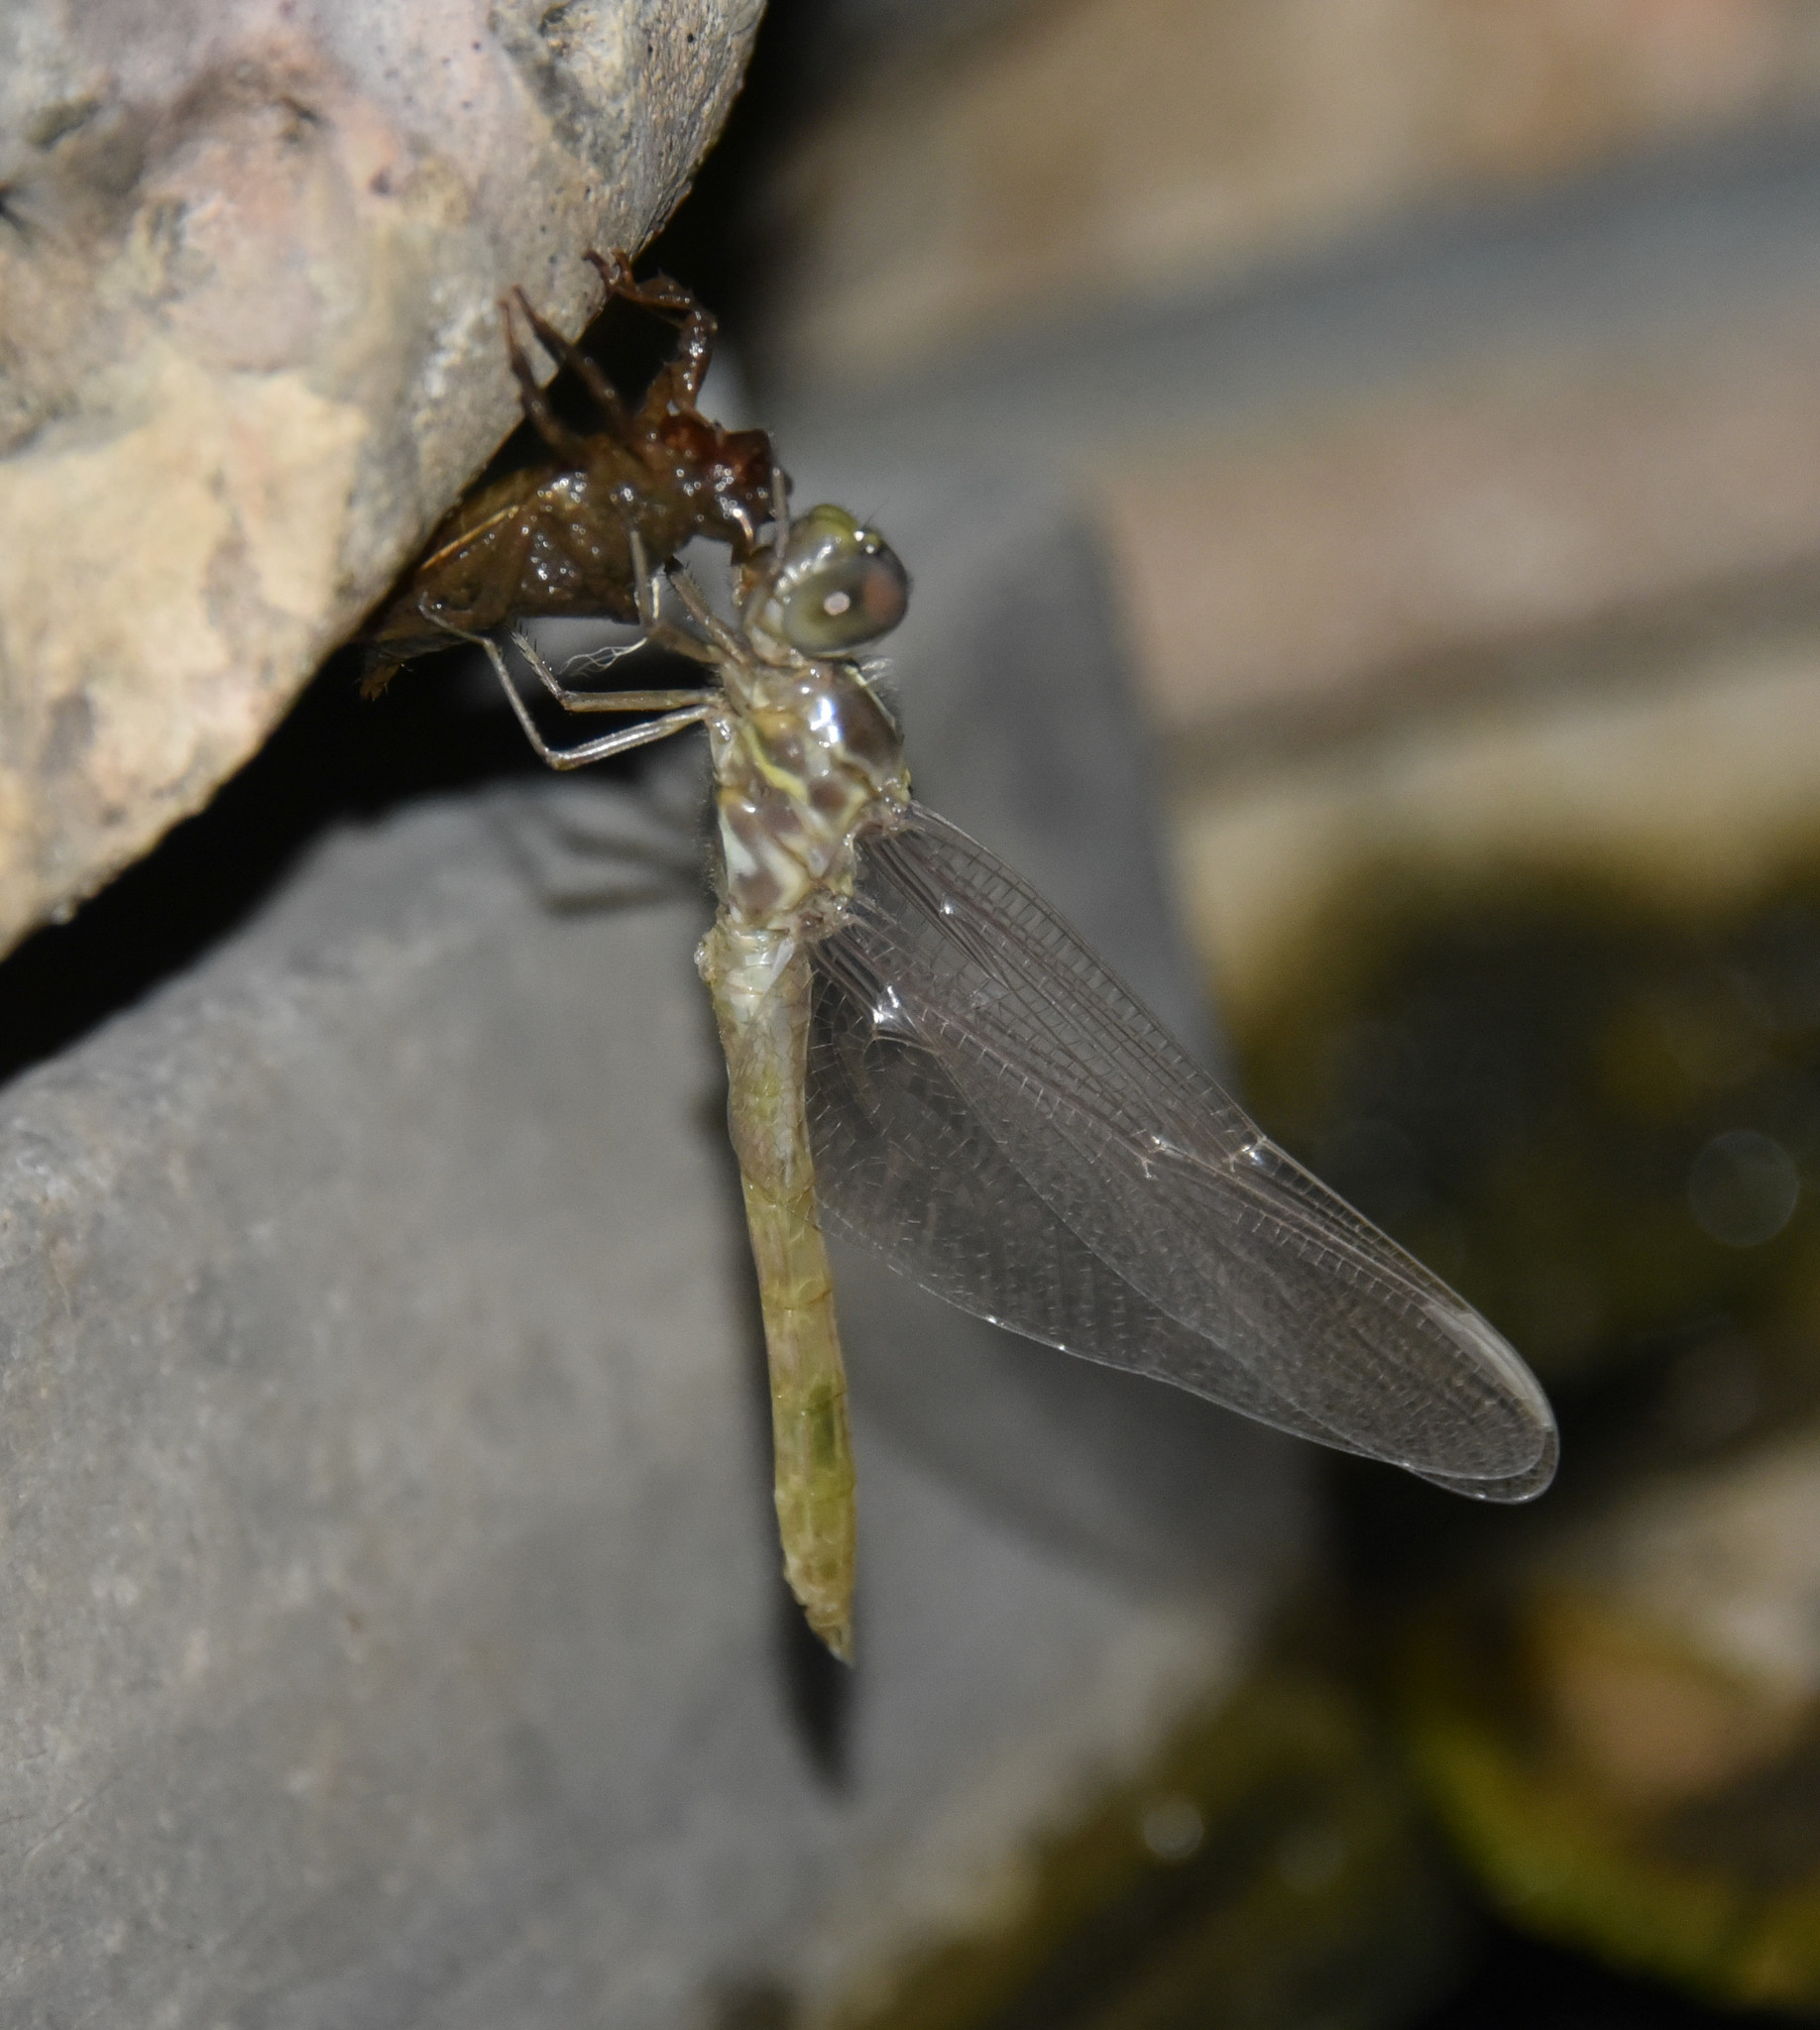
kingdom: Animalia
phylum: Arthropoda
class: Insecta
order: Odonata
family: Libellulidae
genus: Orthemis
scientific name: Orthemis ferruginea
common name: Roseate skimmer
